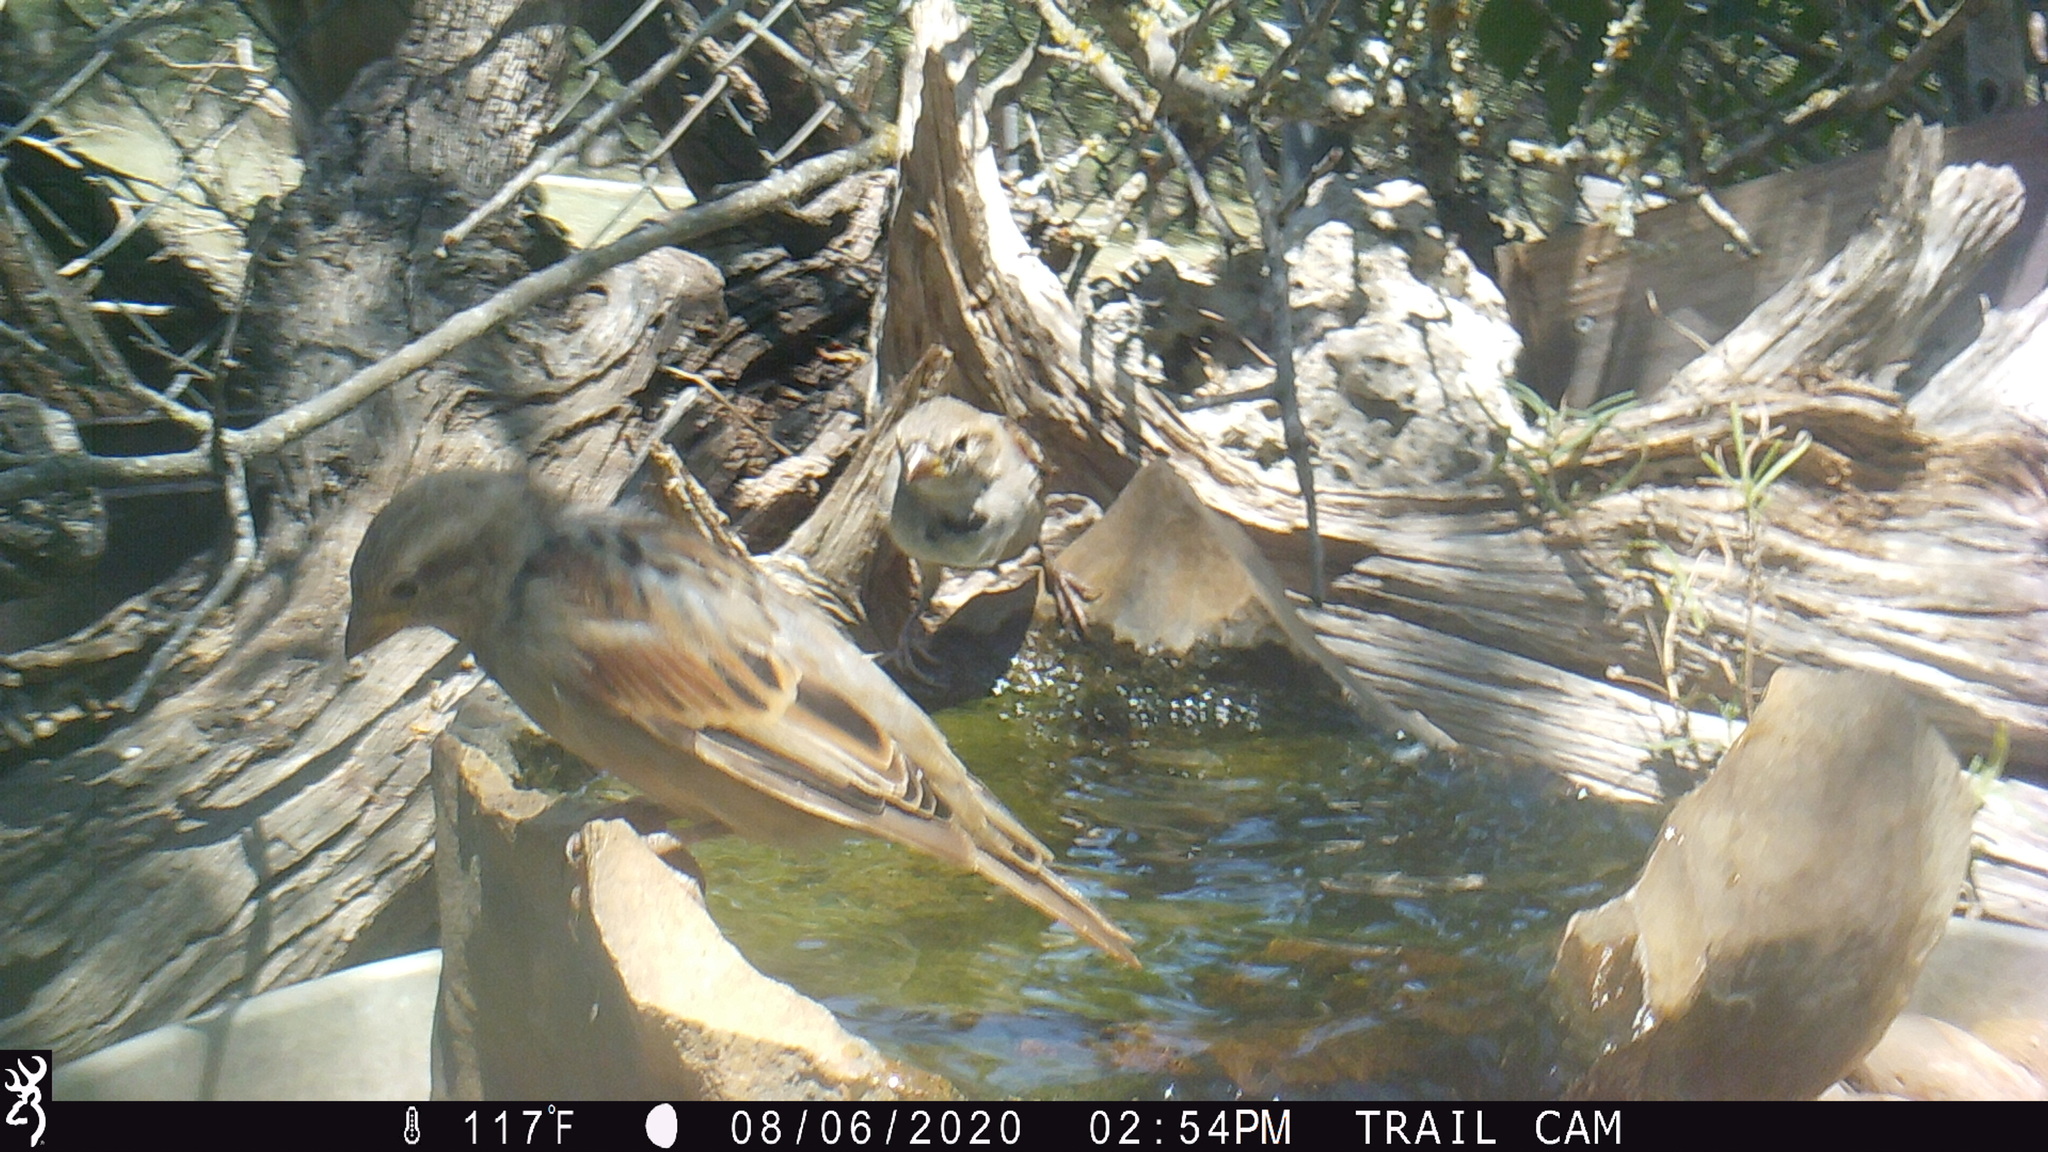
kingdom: Animalia
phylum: Chordata
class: Aves
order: Passeriformes
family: Passeridae
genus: Passer
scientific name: Passer domesticus
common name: House sparrow
